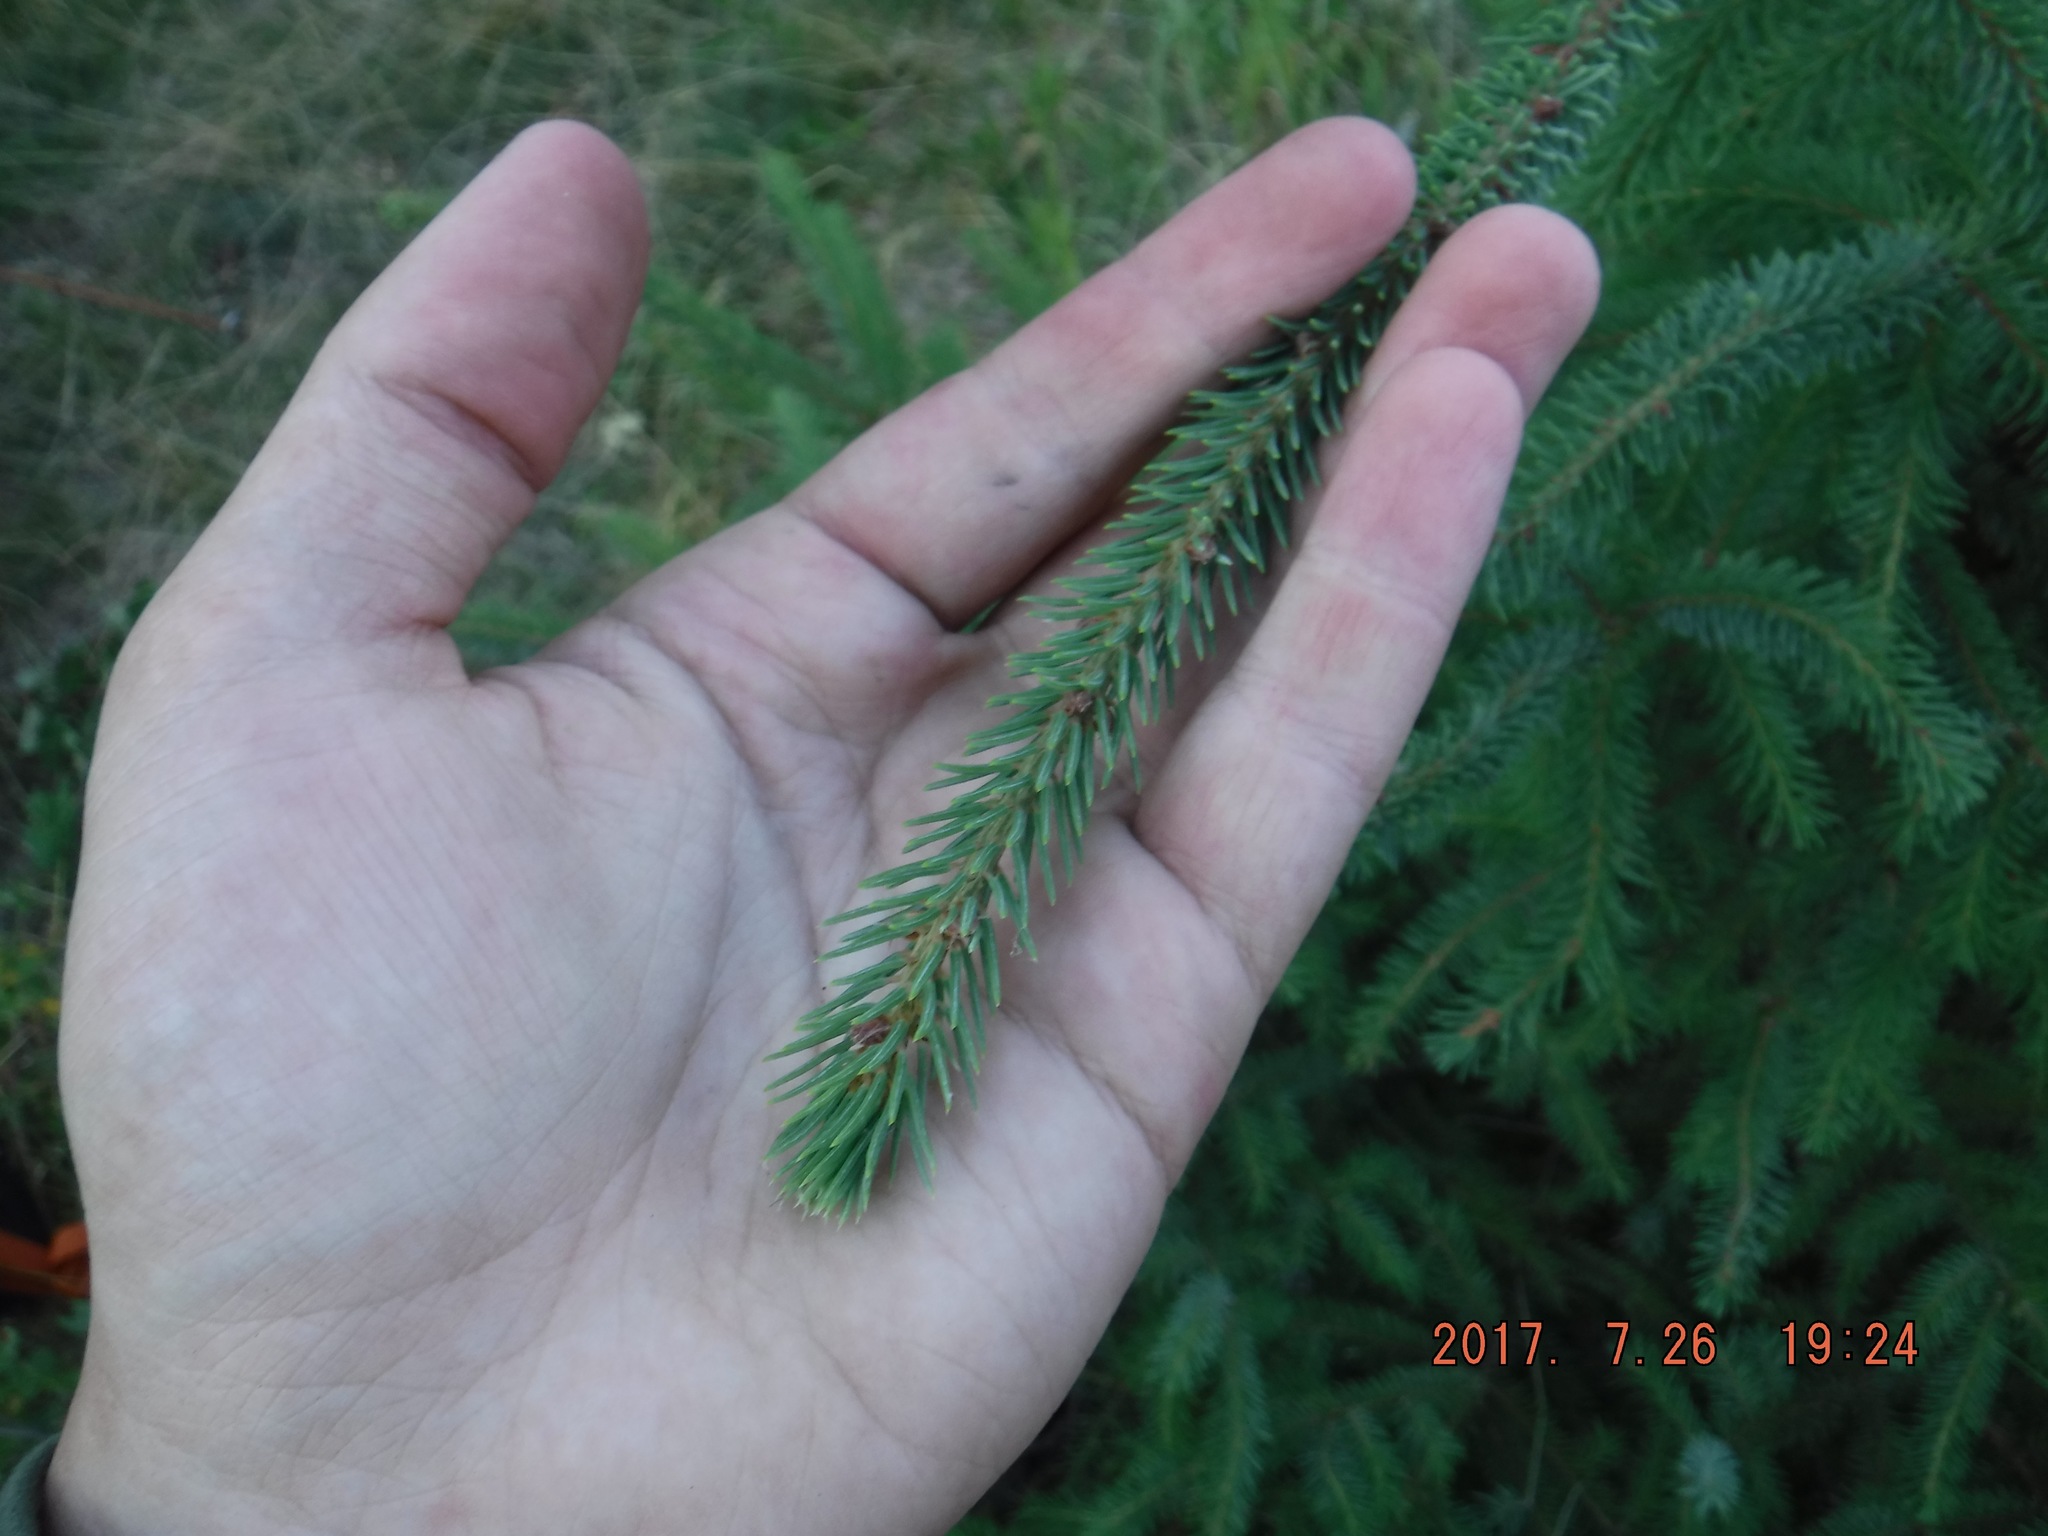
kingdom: Plantae
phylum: Tracheophyta
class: Pinopsida
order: Pinales
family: Pinaceae
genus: Picea
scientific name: Picea glauca
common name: White spruce
